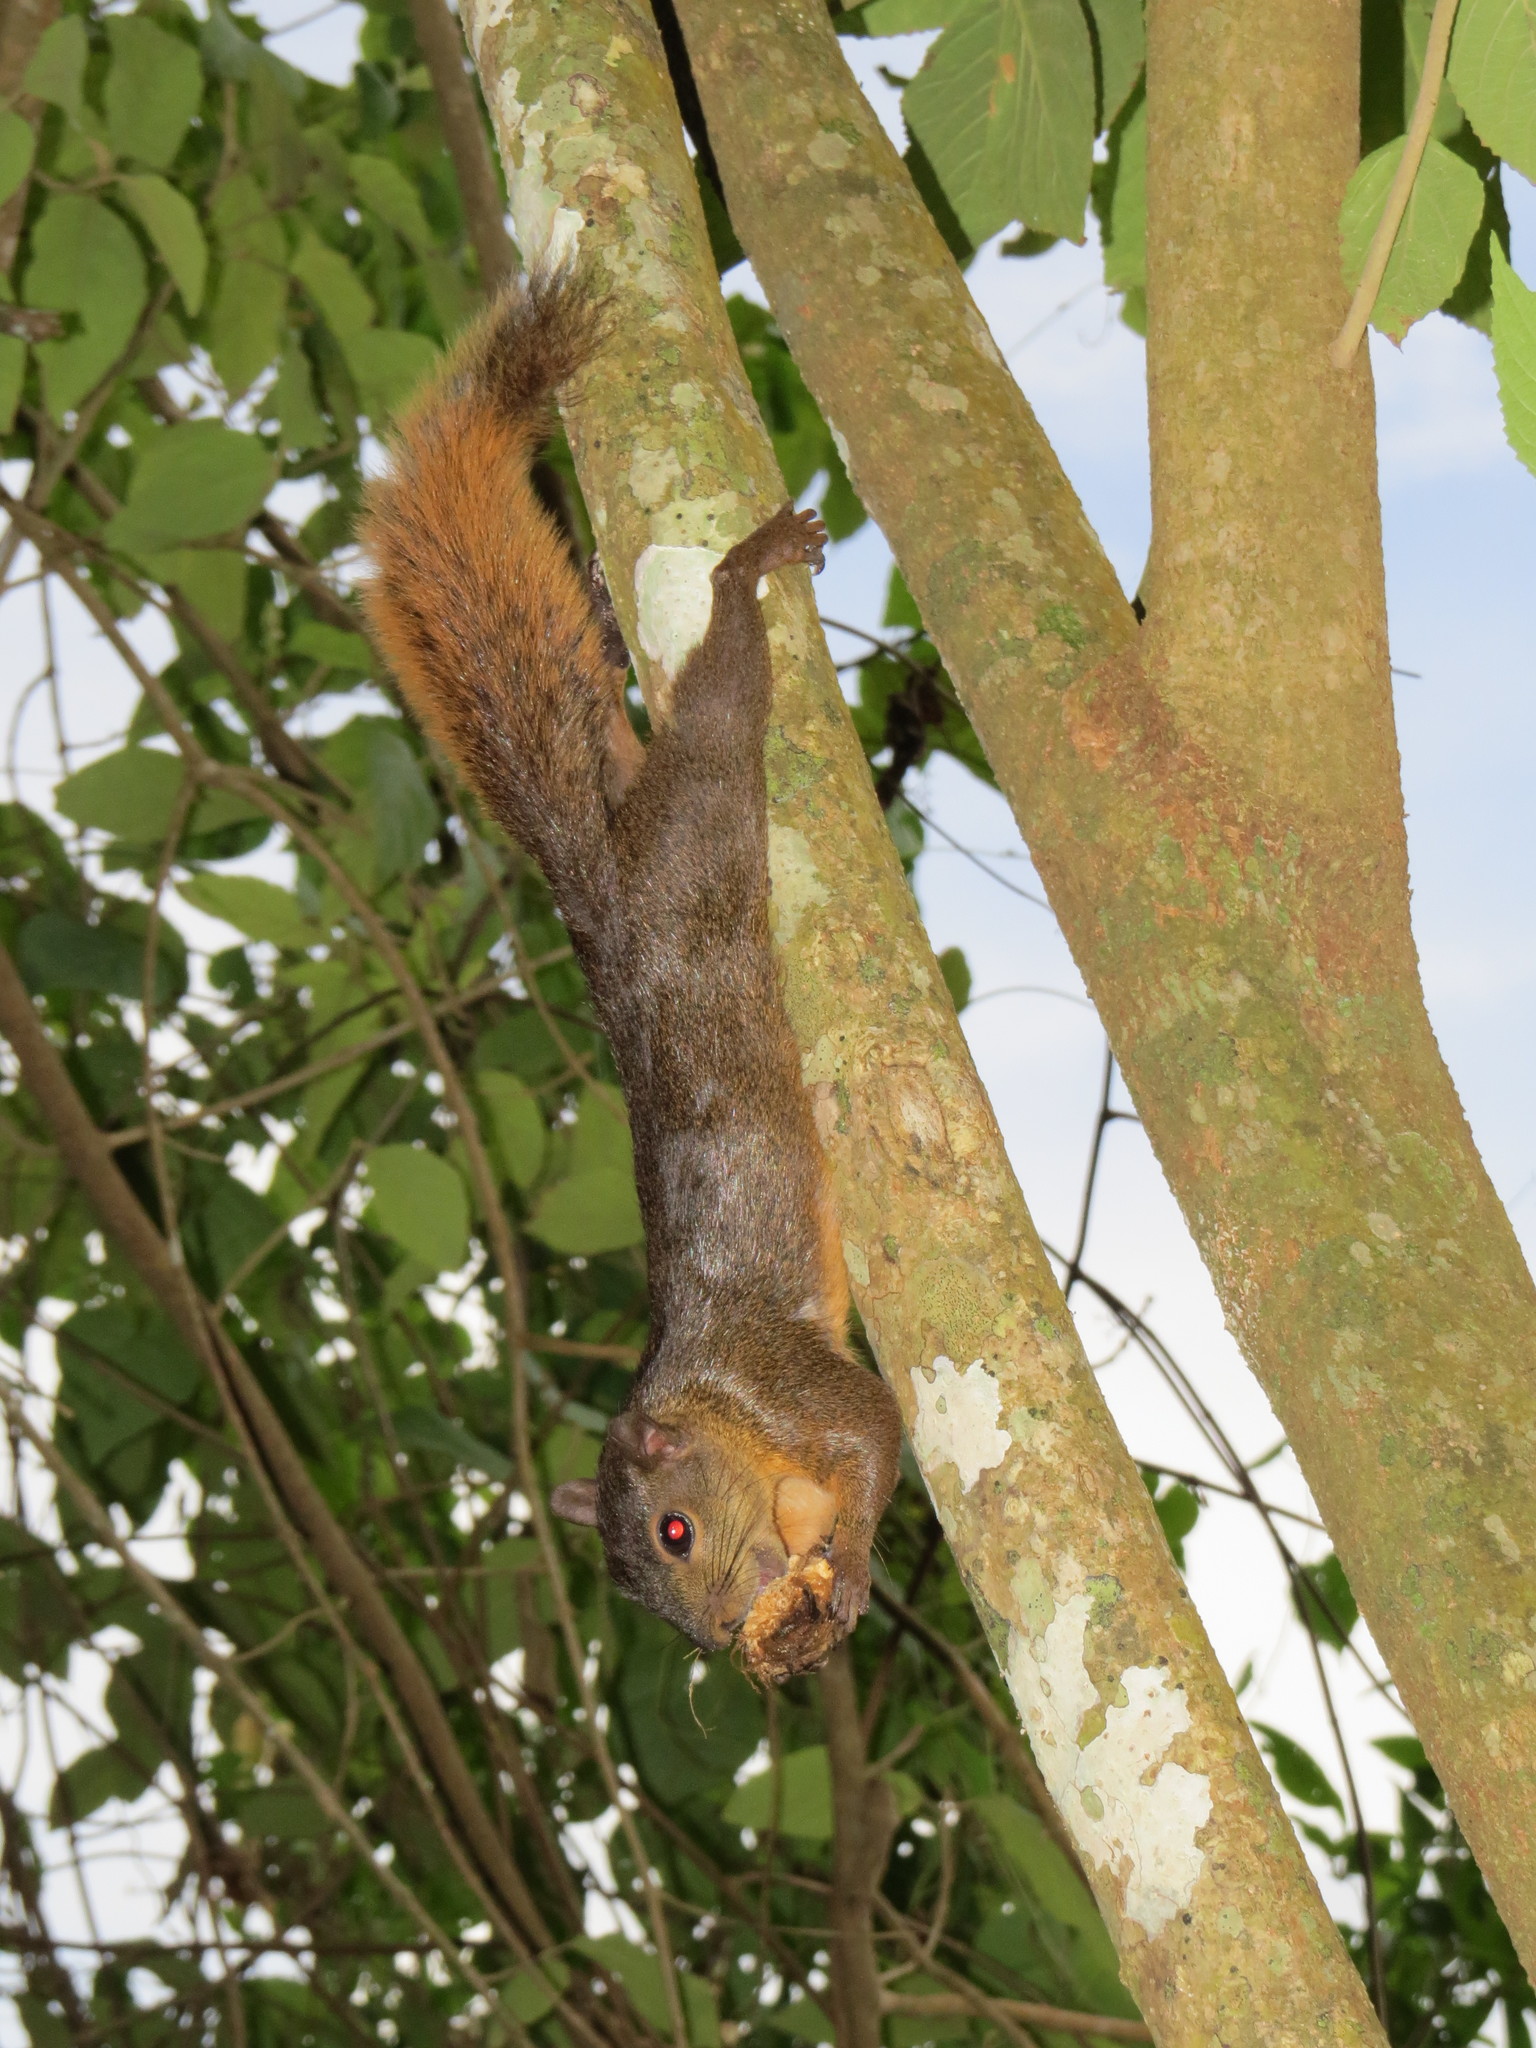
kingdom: Animalia
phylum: Chordata
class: Mammalia
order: Rodentia
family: Sciuridae
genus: Sciurus
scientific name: Sciurus granatensis
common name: Red-tailed squirrel
